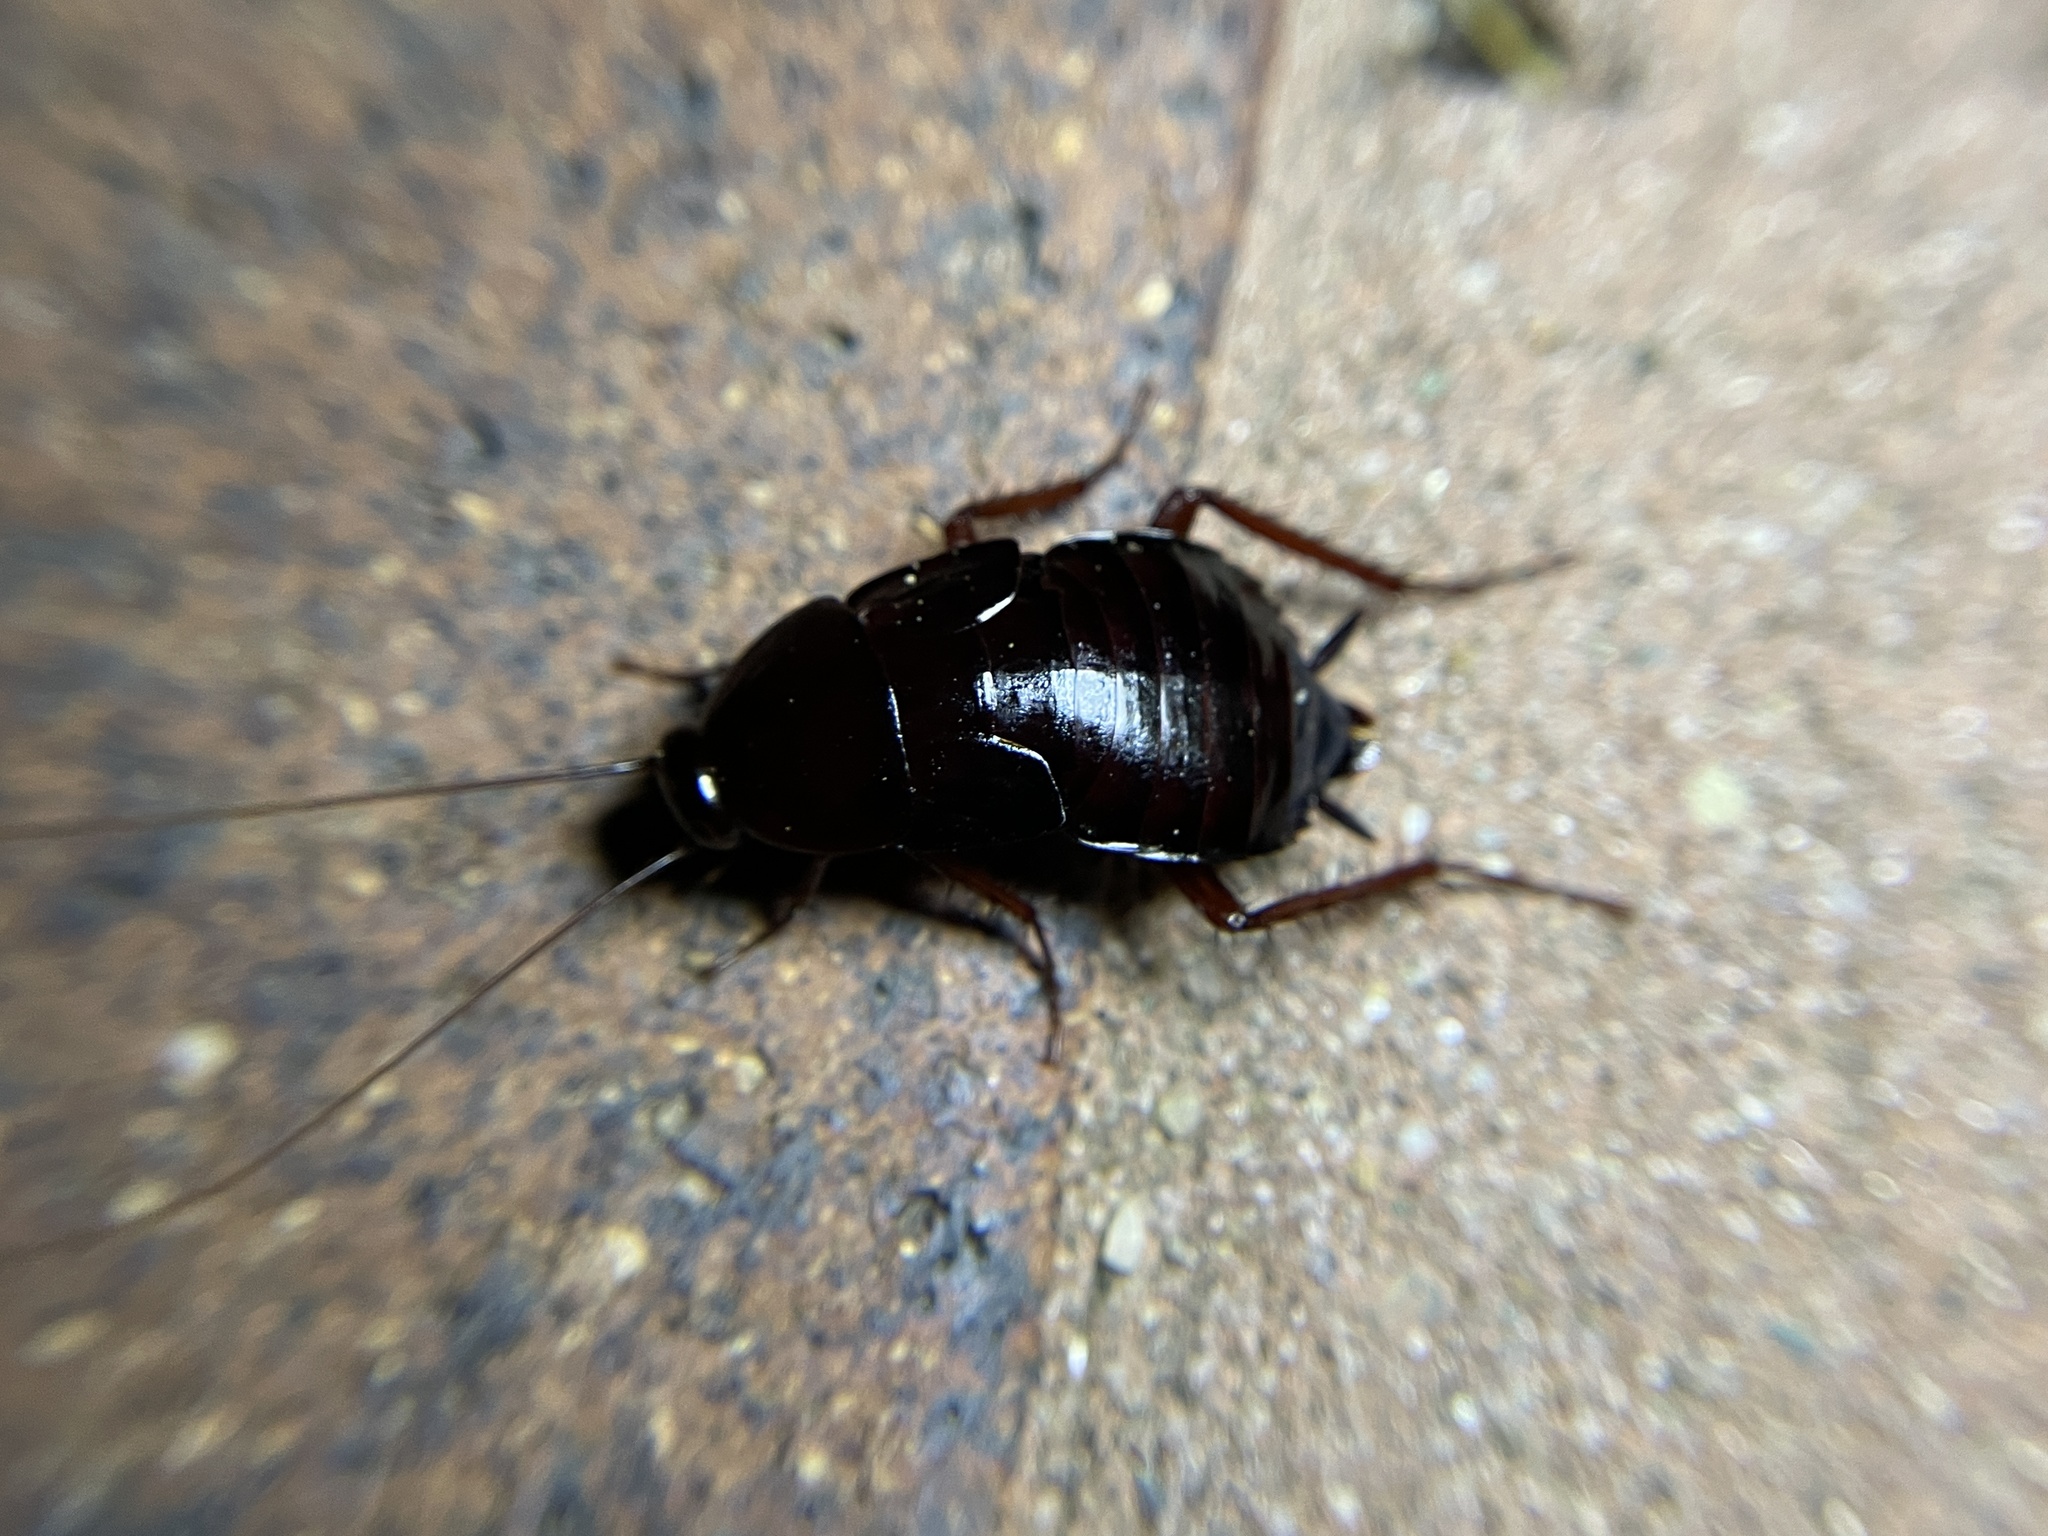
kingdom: Animalia
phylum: Arthropoda
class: Insecta
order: Blattodea
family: Blattidae
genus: Blatta
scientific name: Blatta orientalis
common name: Oriental cockroach
